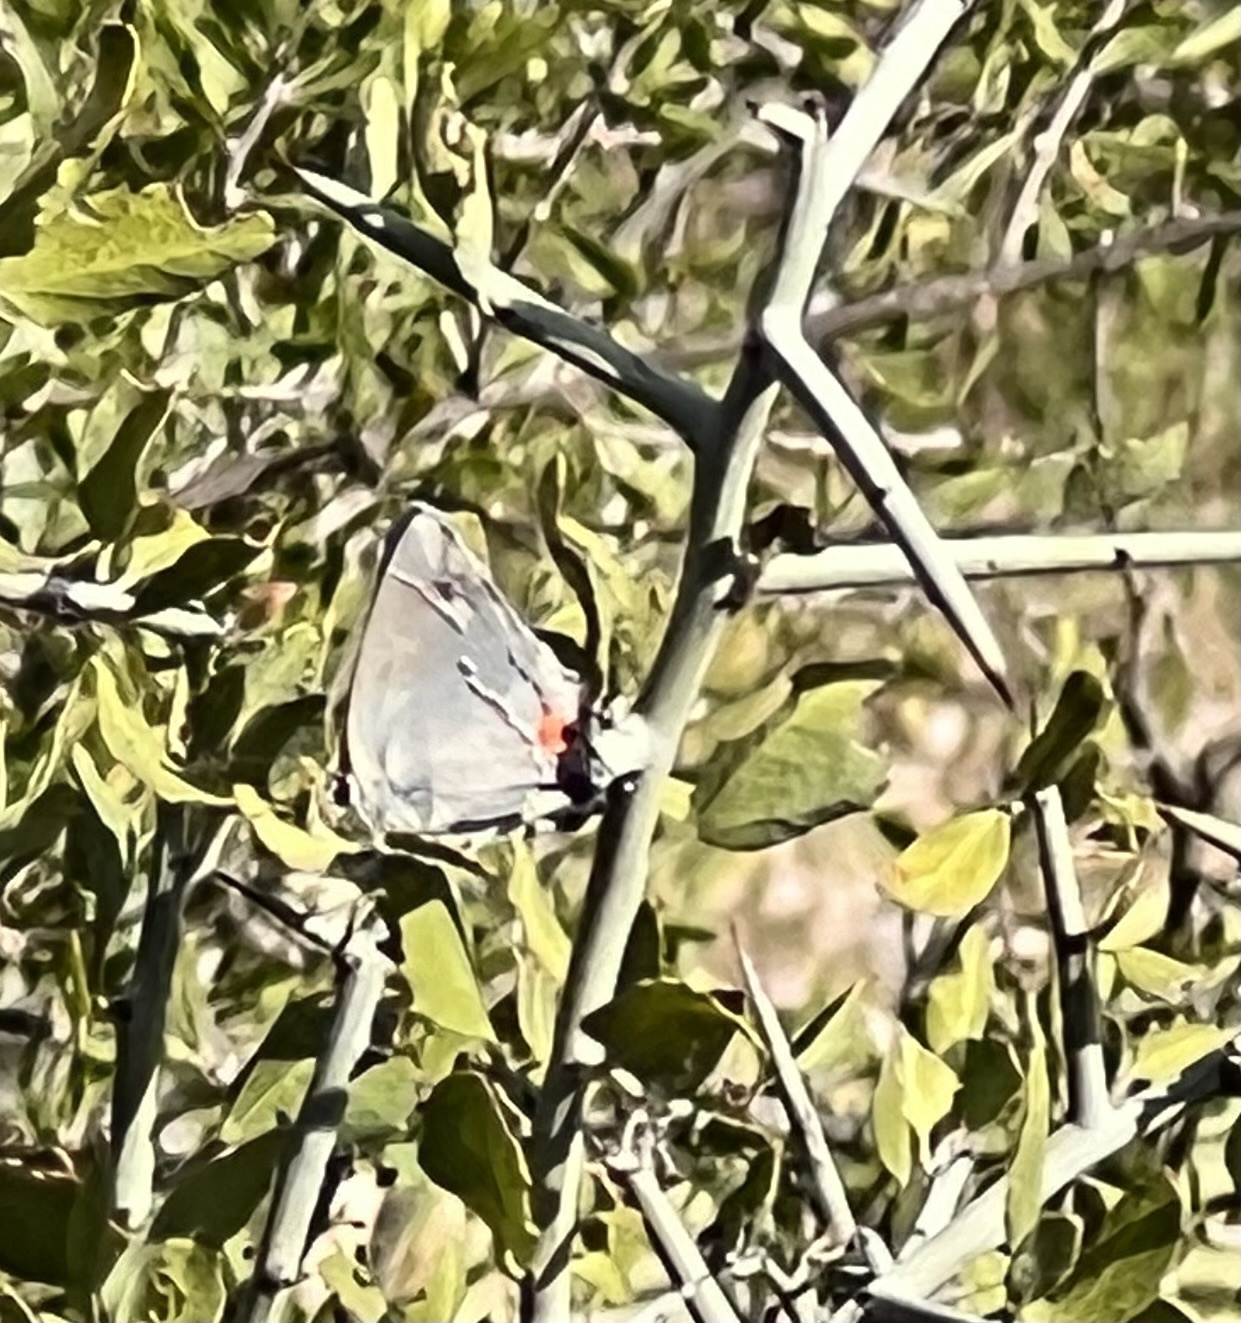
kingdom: Animalia
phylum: Arthropoda
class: Insecta
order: Lepidoptera
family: Lycaenidae
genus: Strymon
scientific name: Strymon melinus
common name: Gray hairstreak
